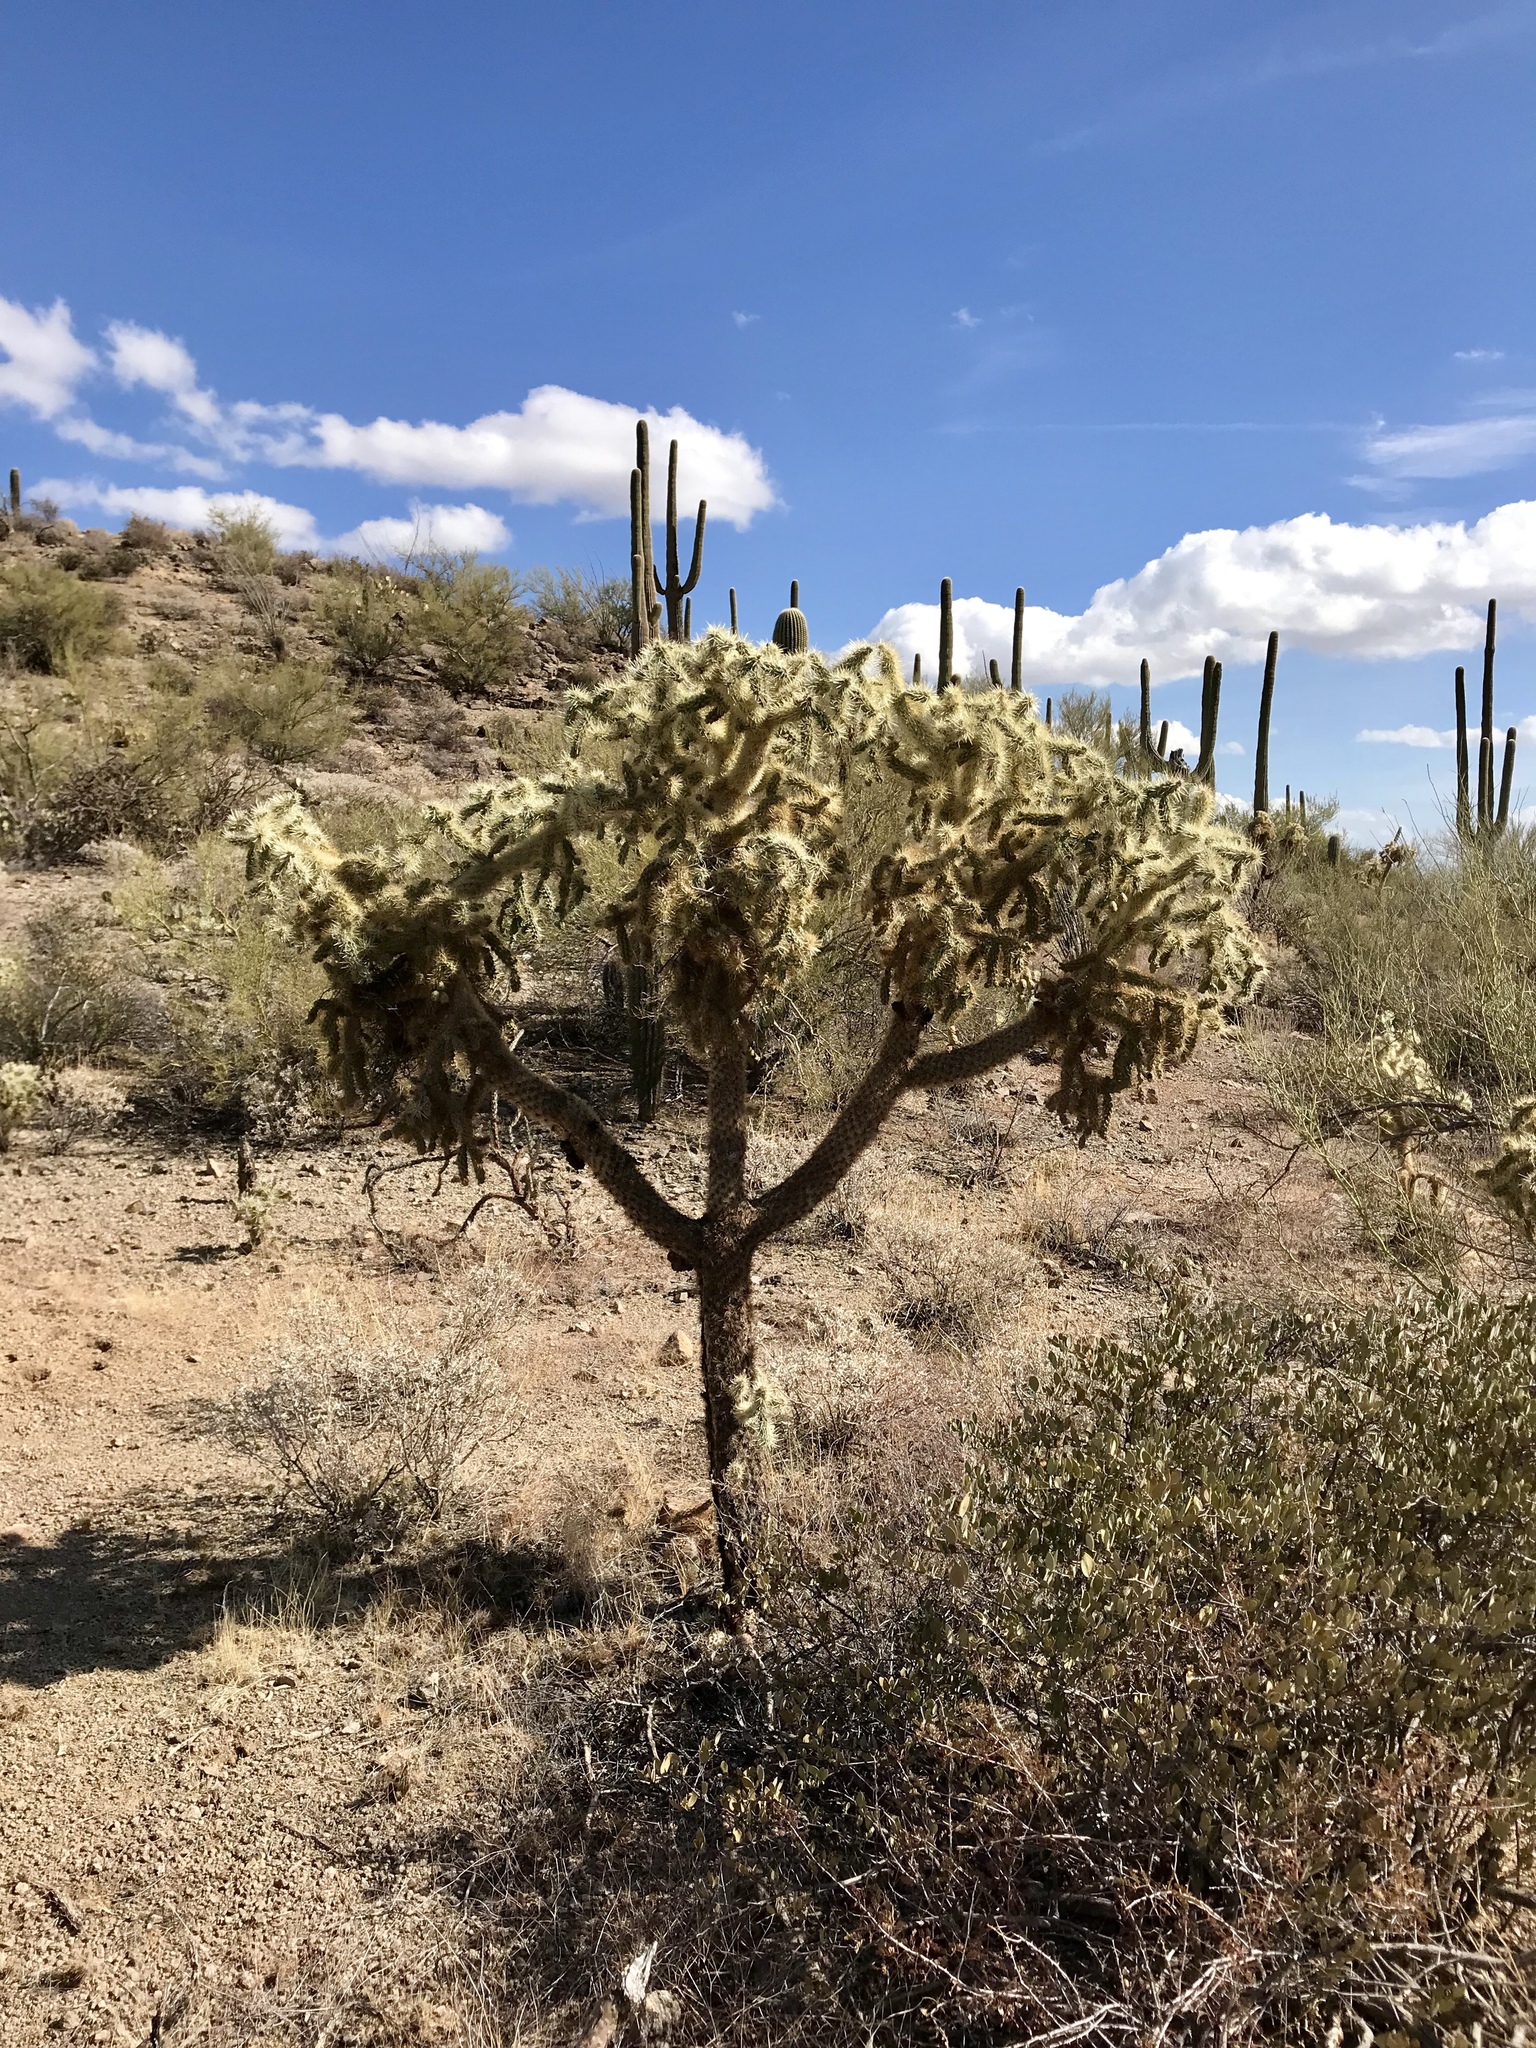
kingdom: Plantae
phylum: Tracheophyta
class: Magnoliopsida
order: Caryophyllales
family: Cactaceae
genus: Cylindropuntia
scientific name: Cylindropuntia fulgida
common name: Jumping cholla
